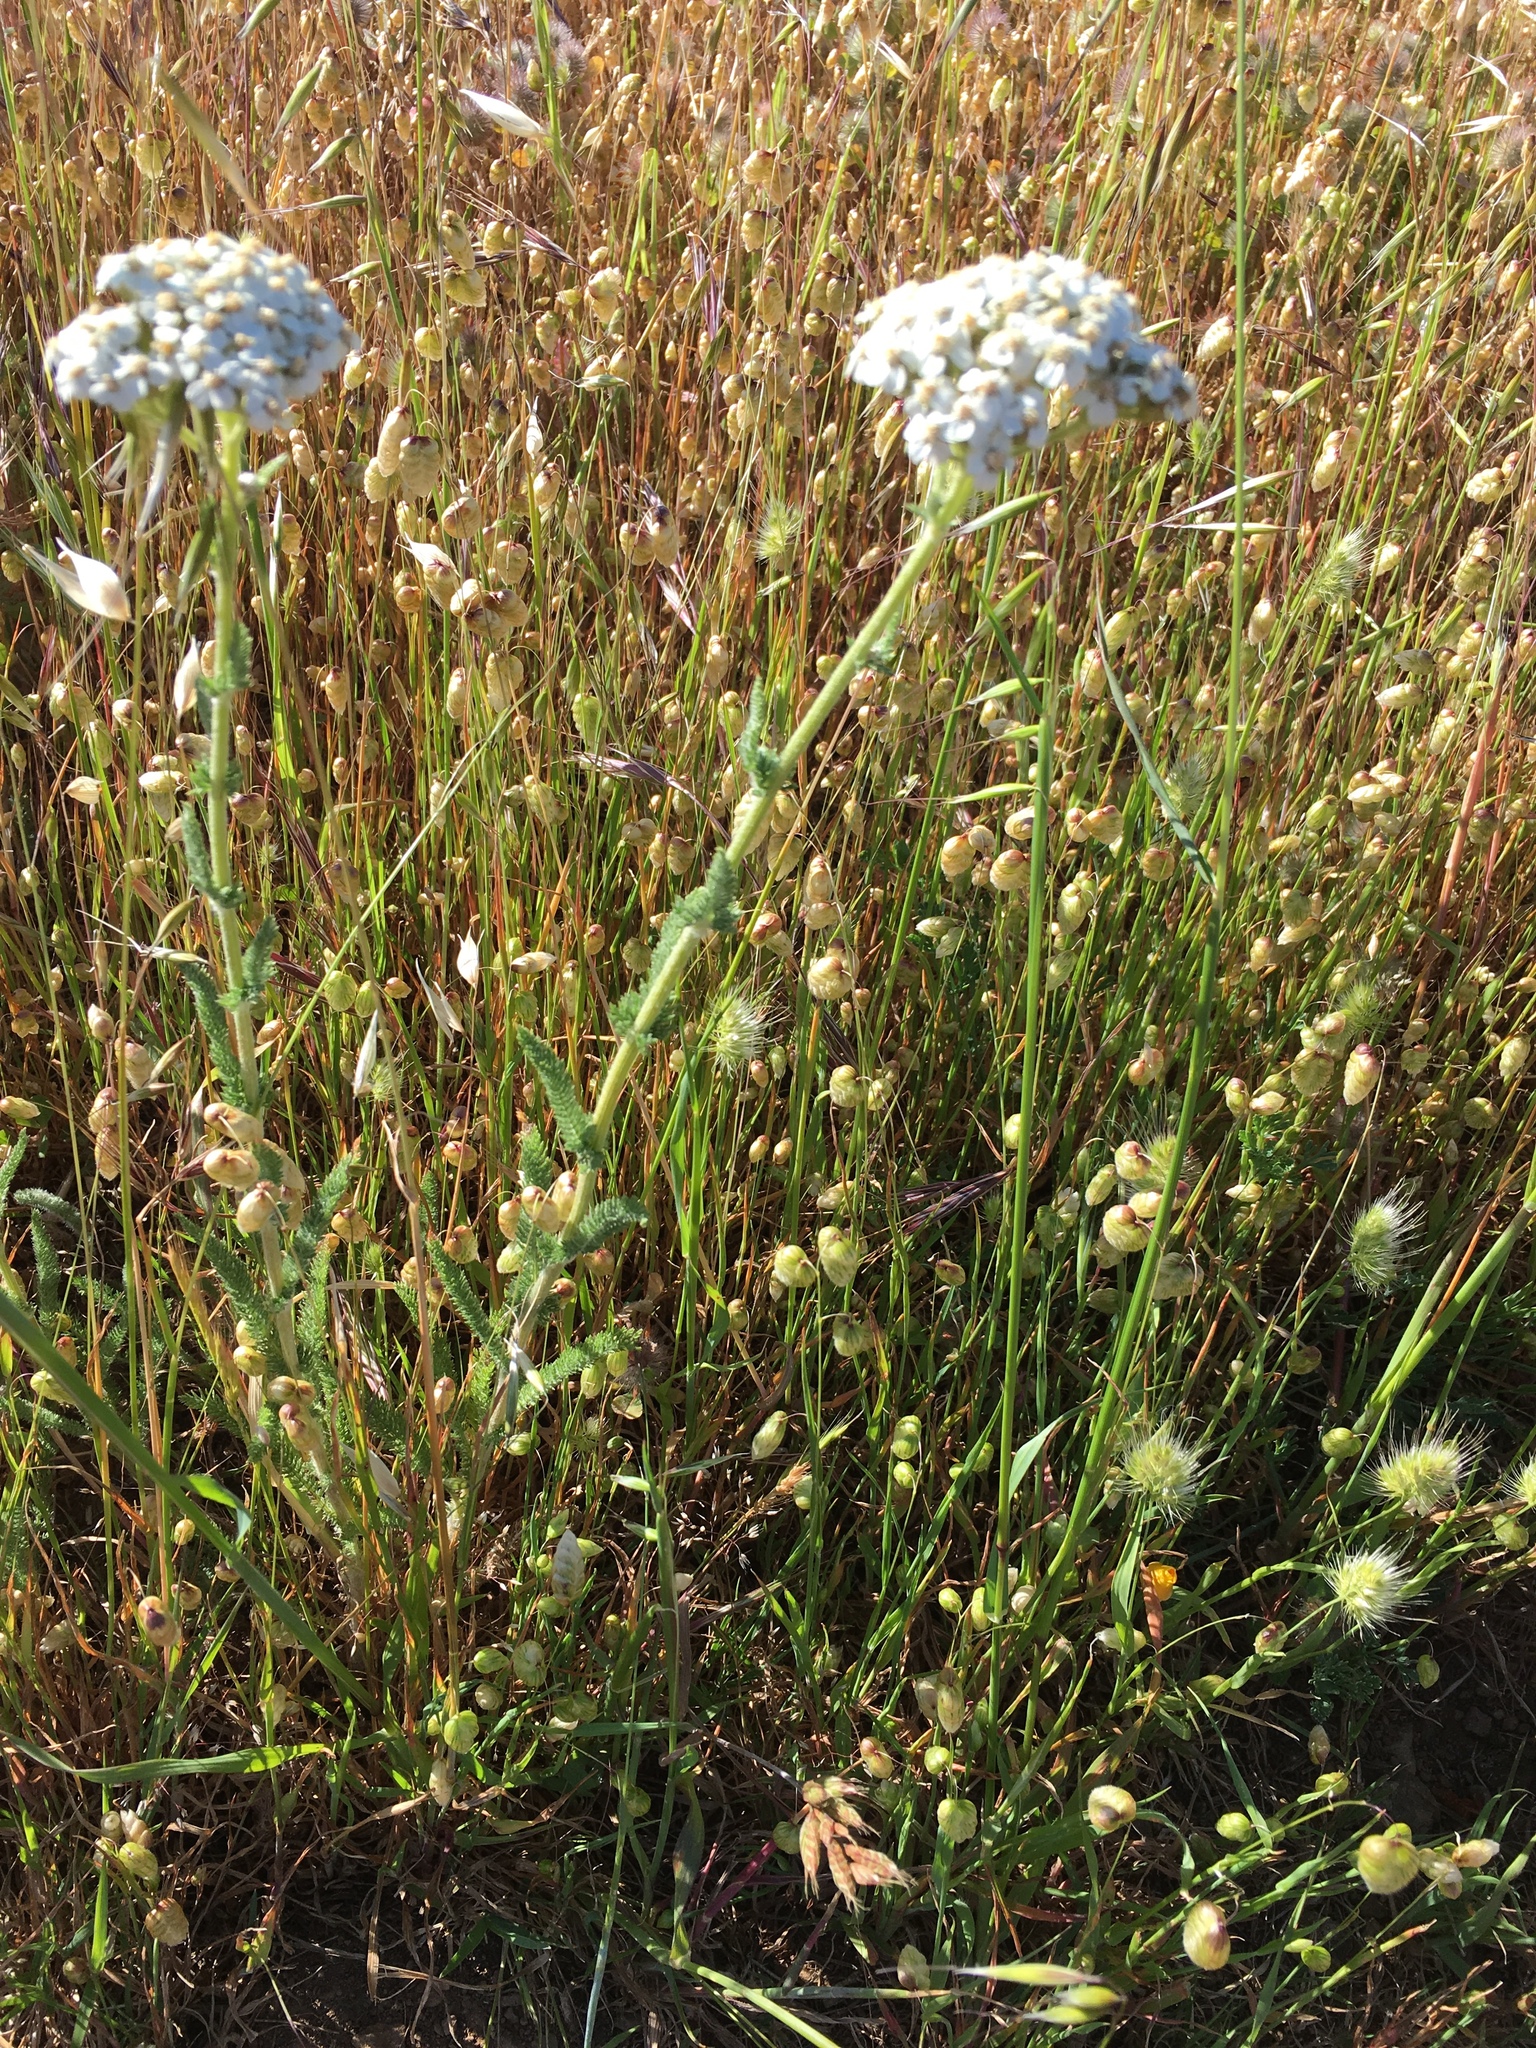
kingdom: Plantae
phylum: Tracheophyta
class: Magnoliopsida
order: Asterales
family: Asteraceae
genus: Achillea
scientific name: Achillea millefolium
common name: Yarrow
